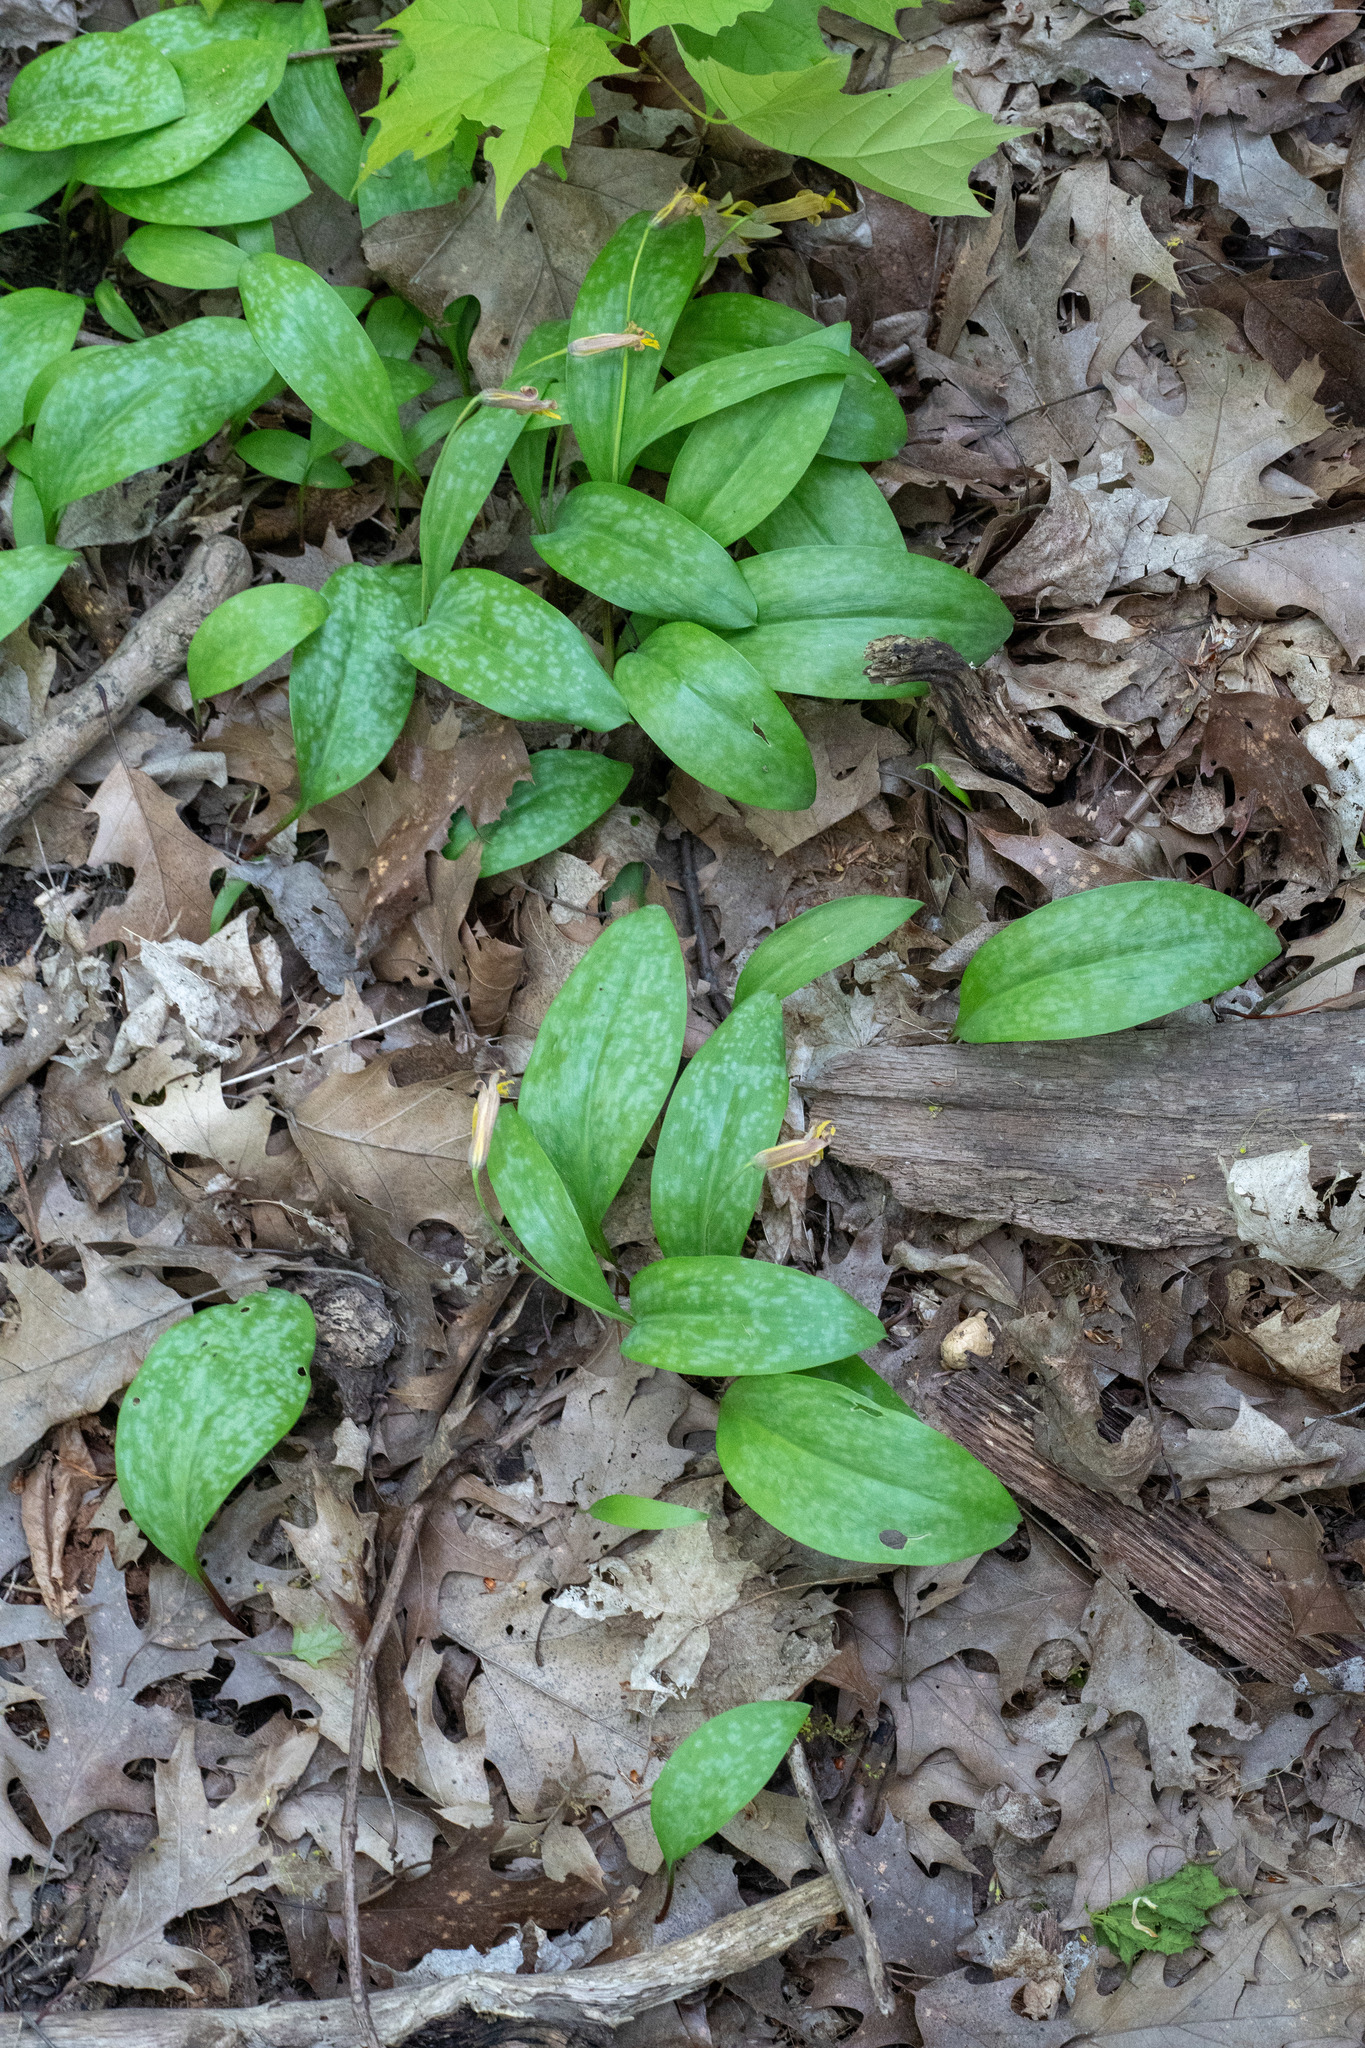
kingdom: Plantae
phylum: Tracheophyta
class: Liliopsida
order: Liliales
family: Liliaceae
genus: Erythronium
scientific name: Erythronium americanum
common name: Yellow adder's-tongue
